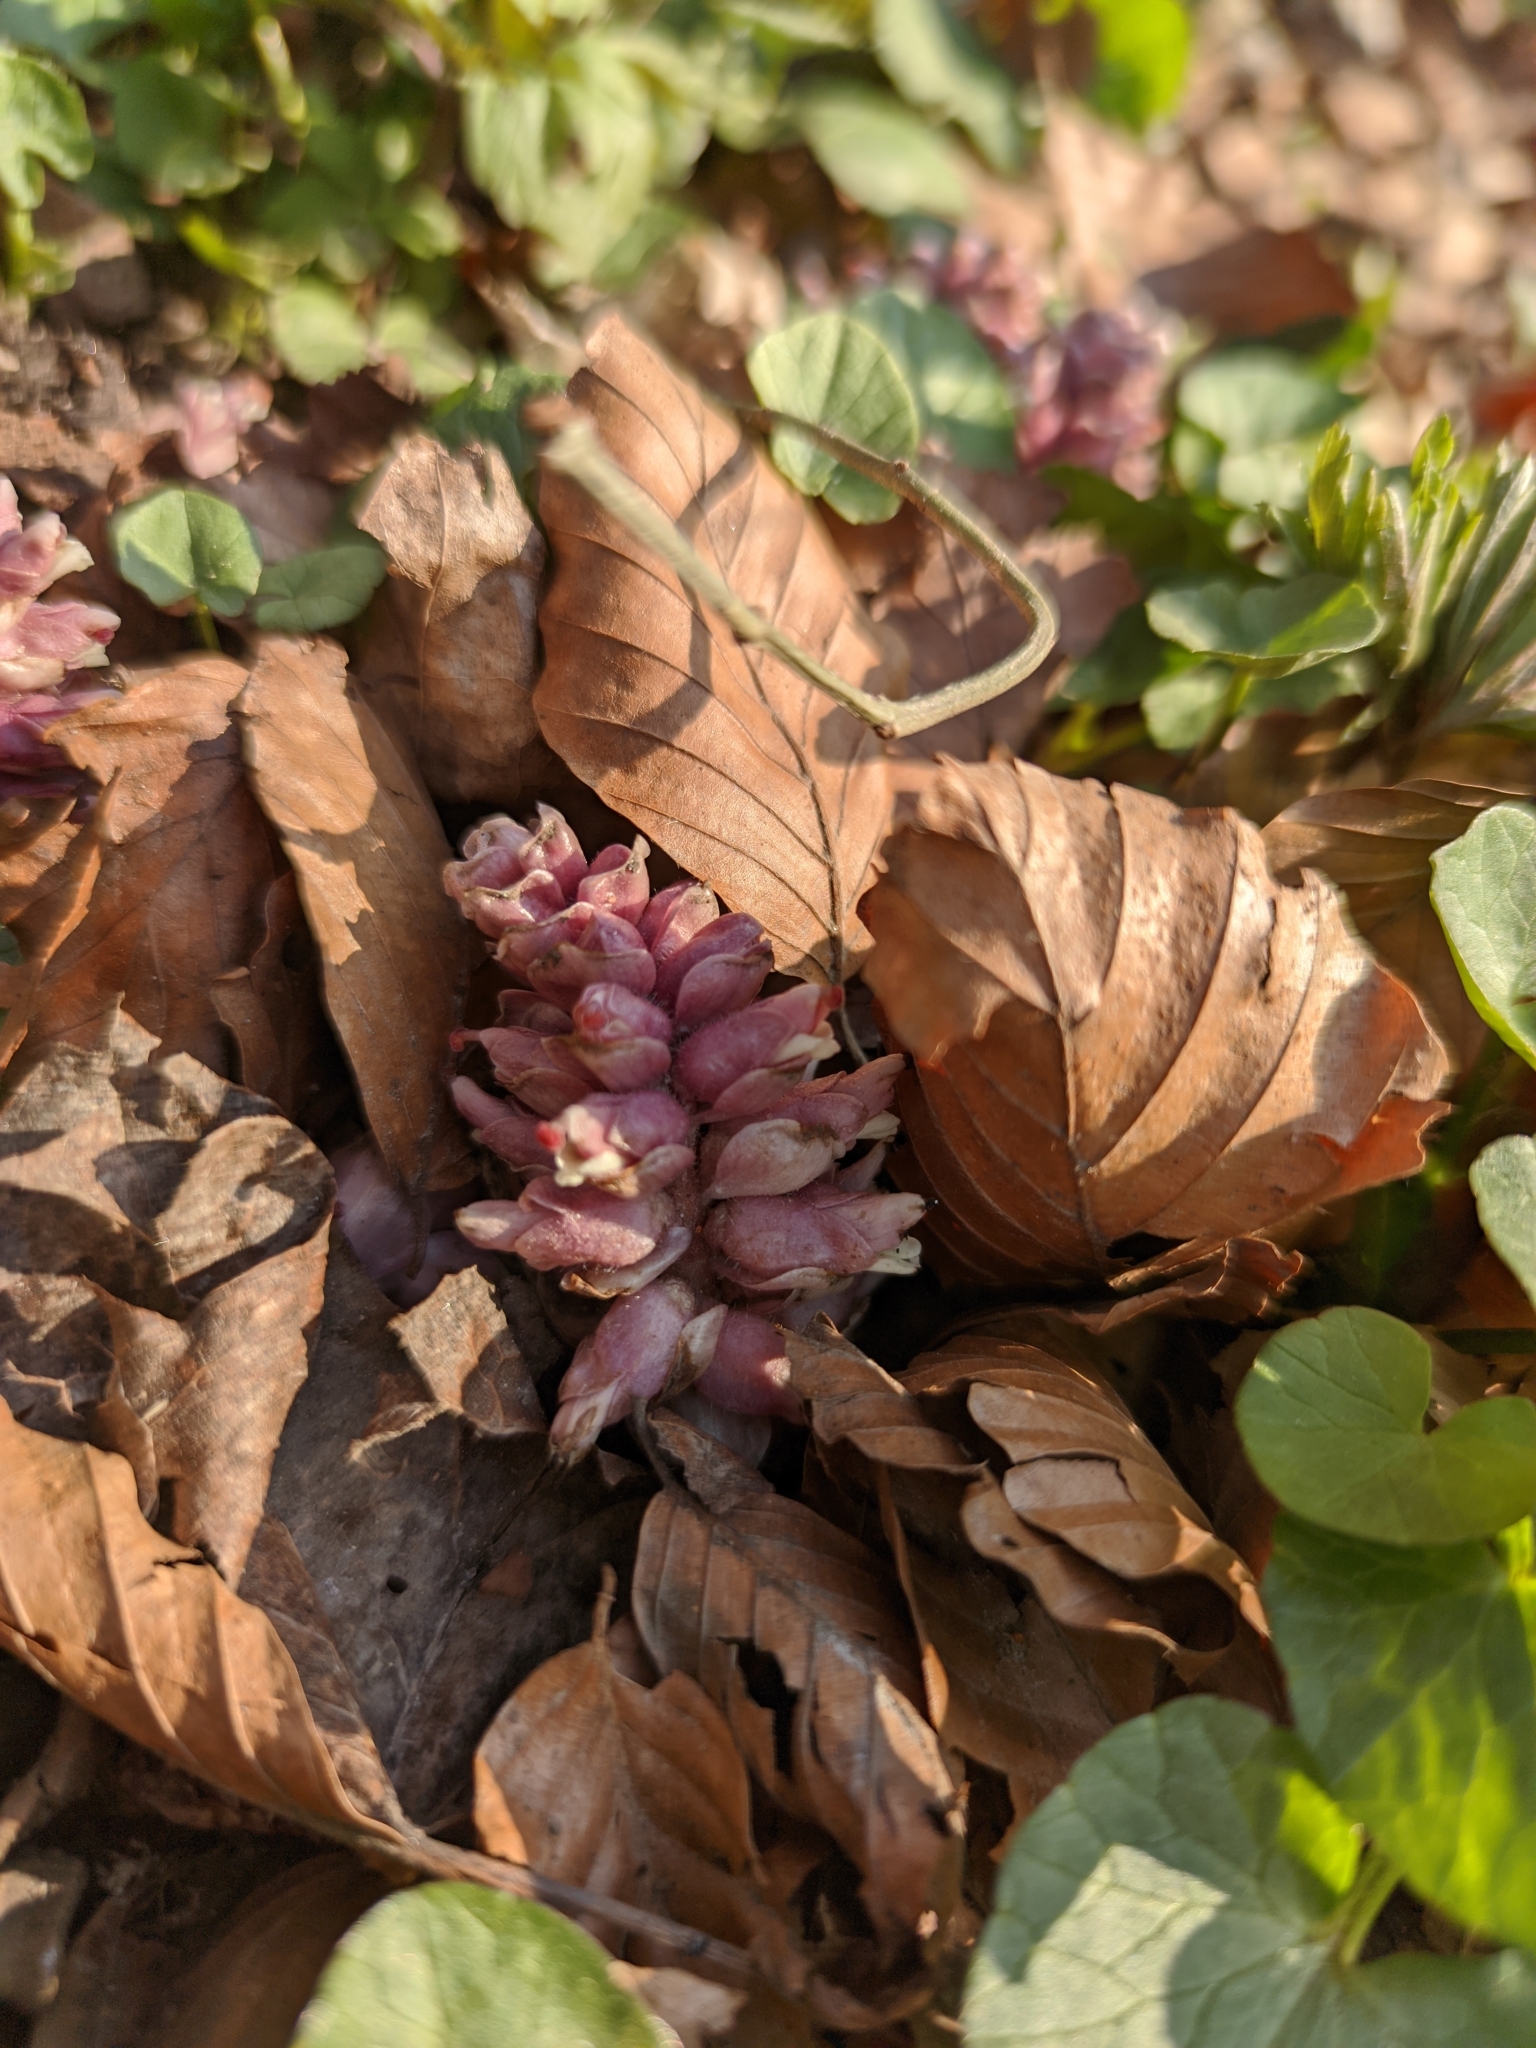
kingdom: Plantae
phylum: Tracheophyta
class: Magnoliopsida
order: Lamiales
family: Orobanchaceae
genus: Lathraea
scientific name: Lathraea squamaria
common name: Toothwort
